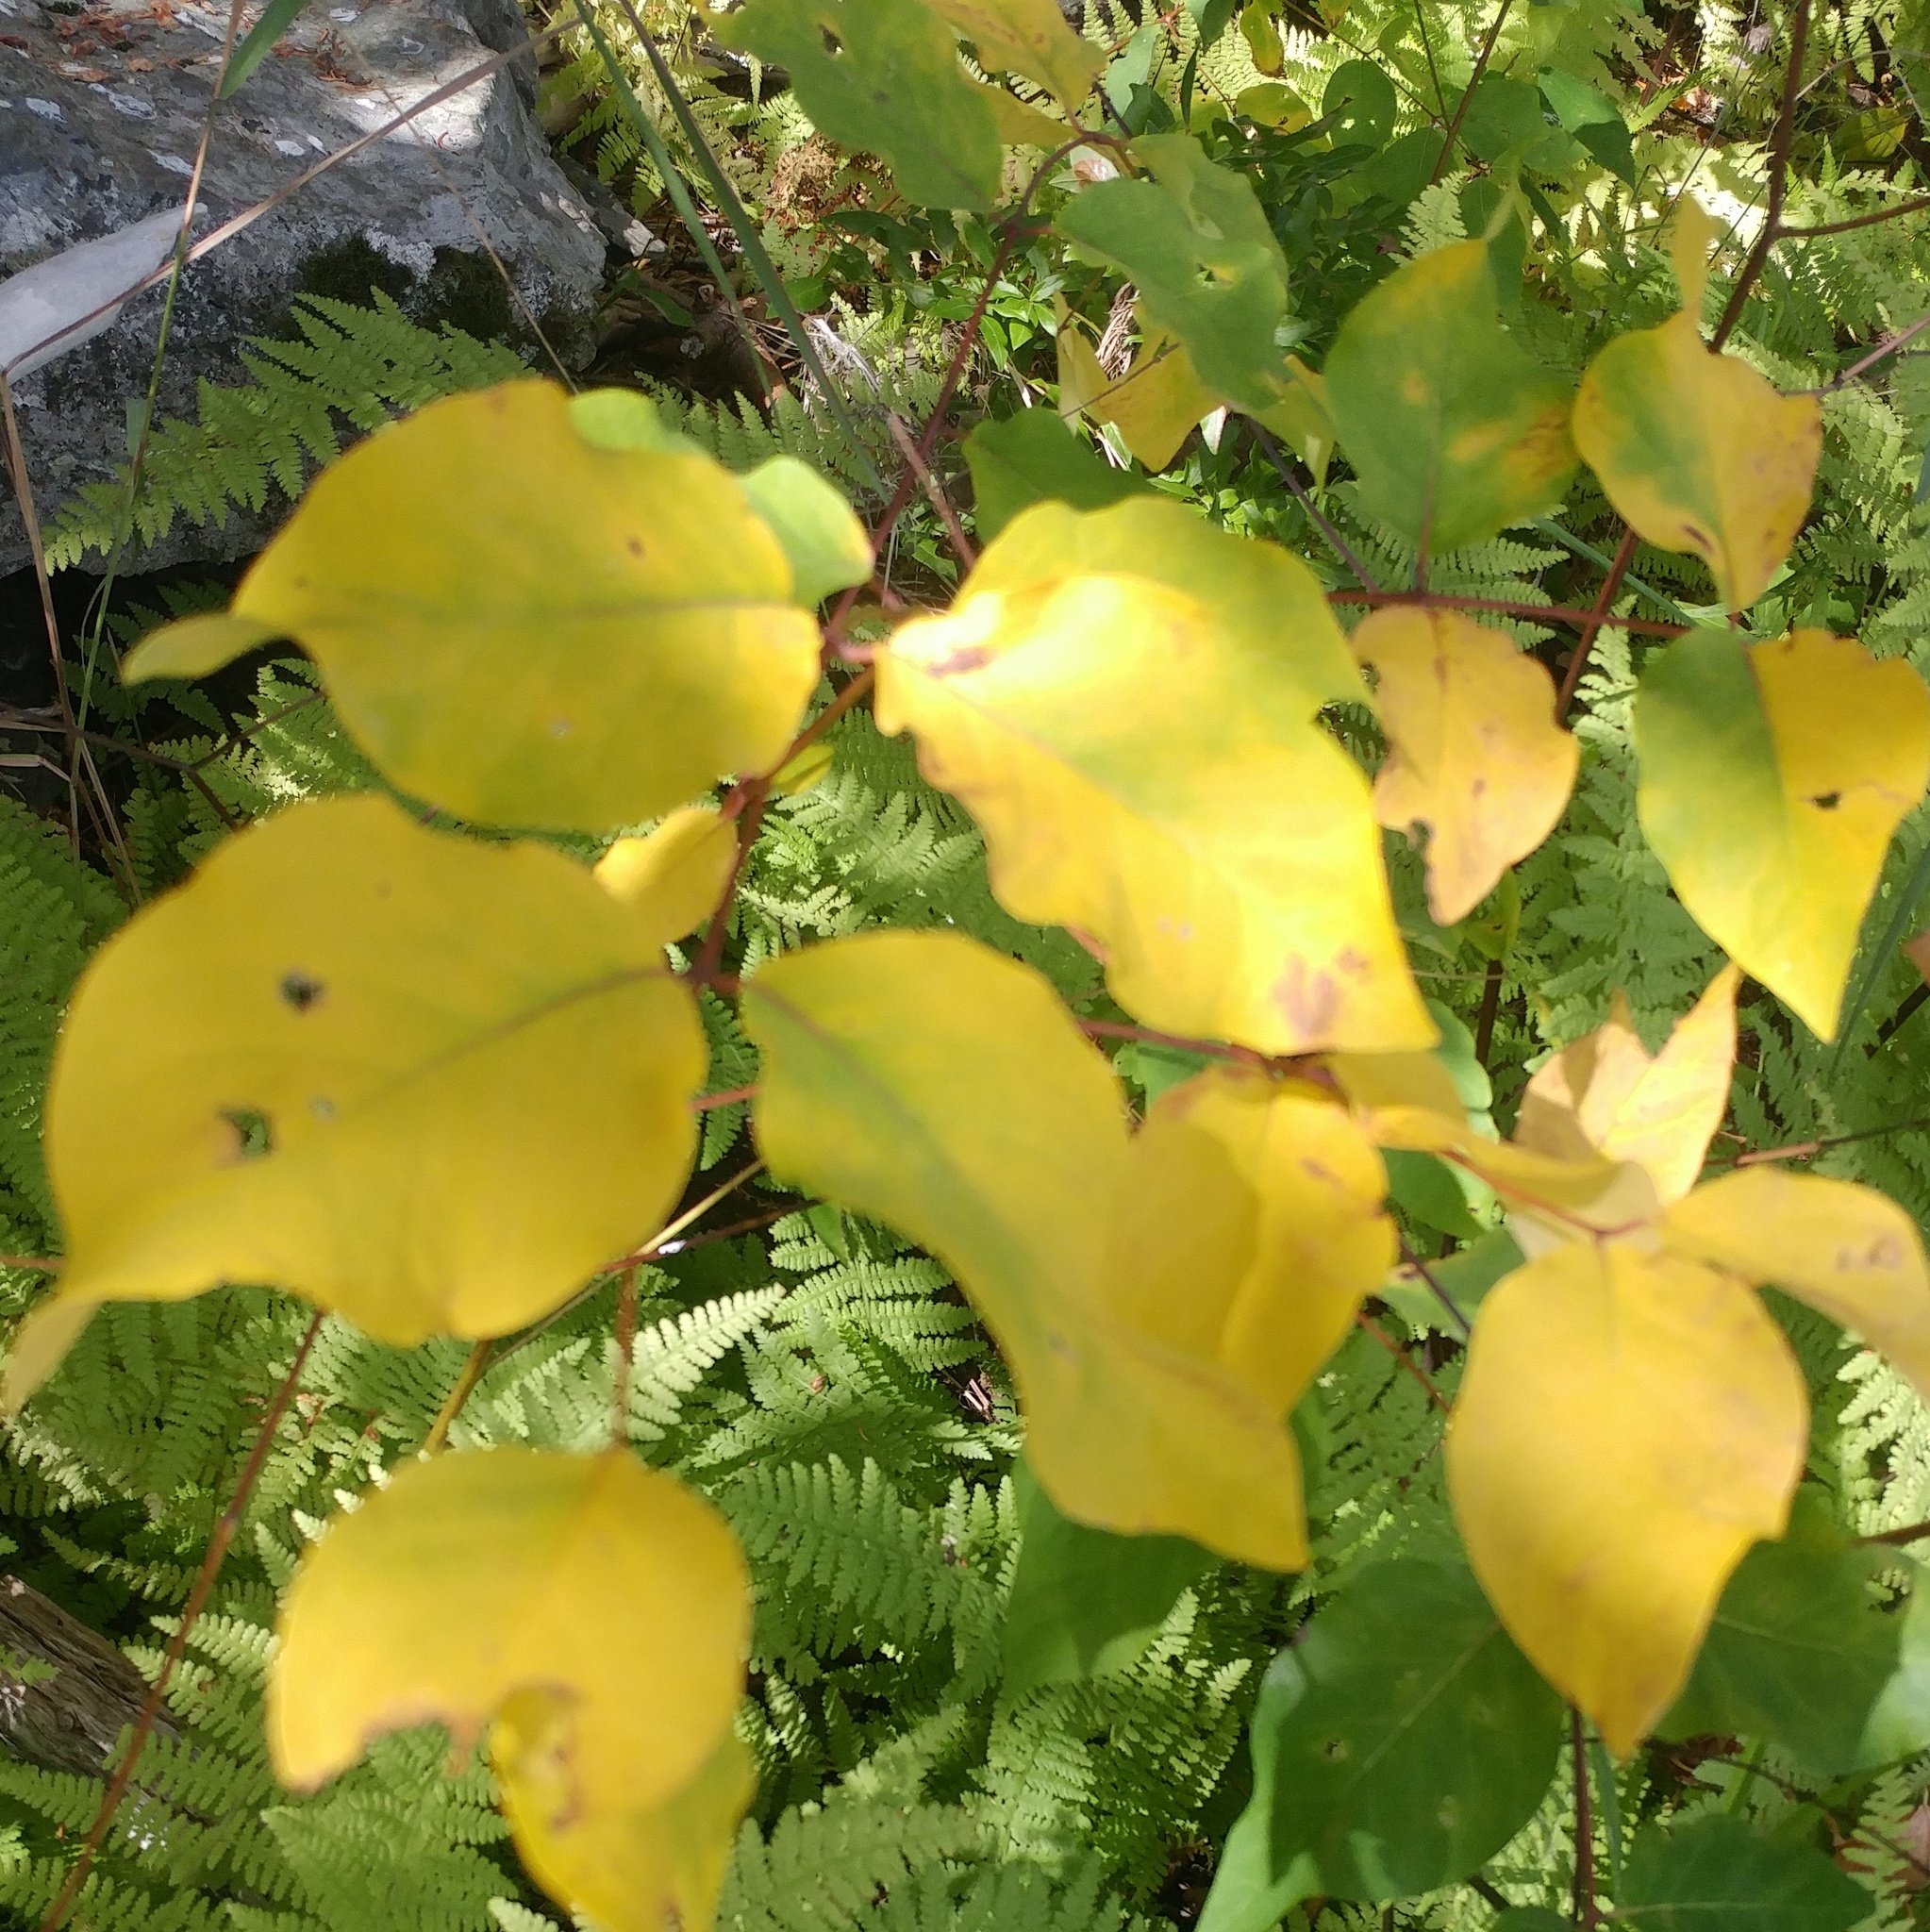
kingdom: Plantae
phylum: Tracheophyta
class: Magnoliopsida
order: Gentianales
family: Apocynaceae
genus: Apocynum
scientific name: Apocynum androsaemifolium
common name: Spreading dogbane
